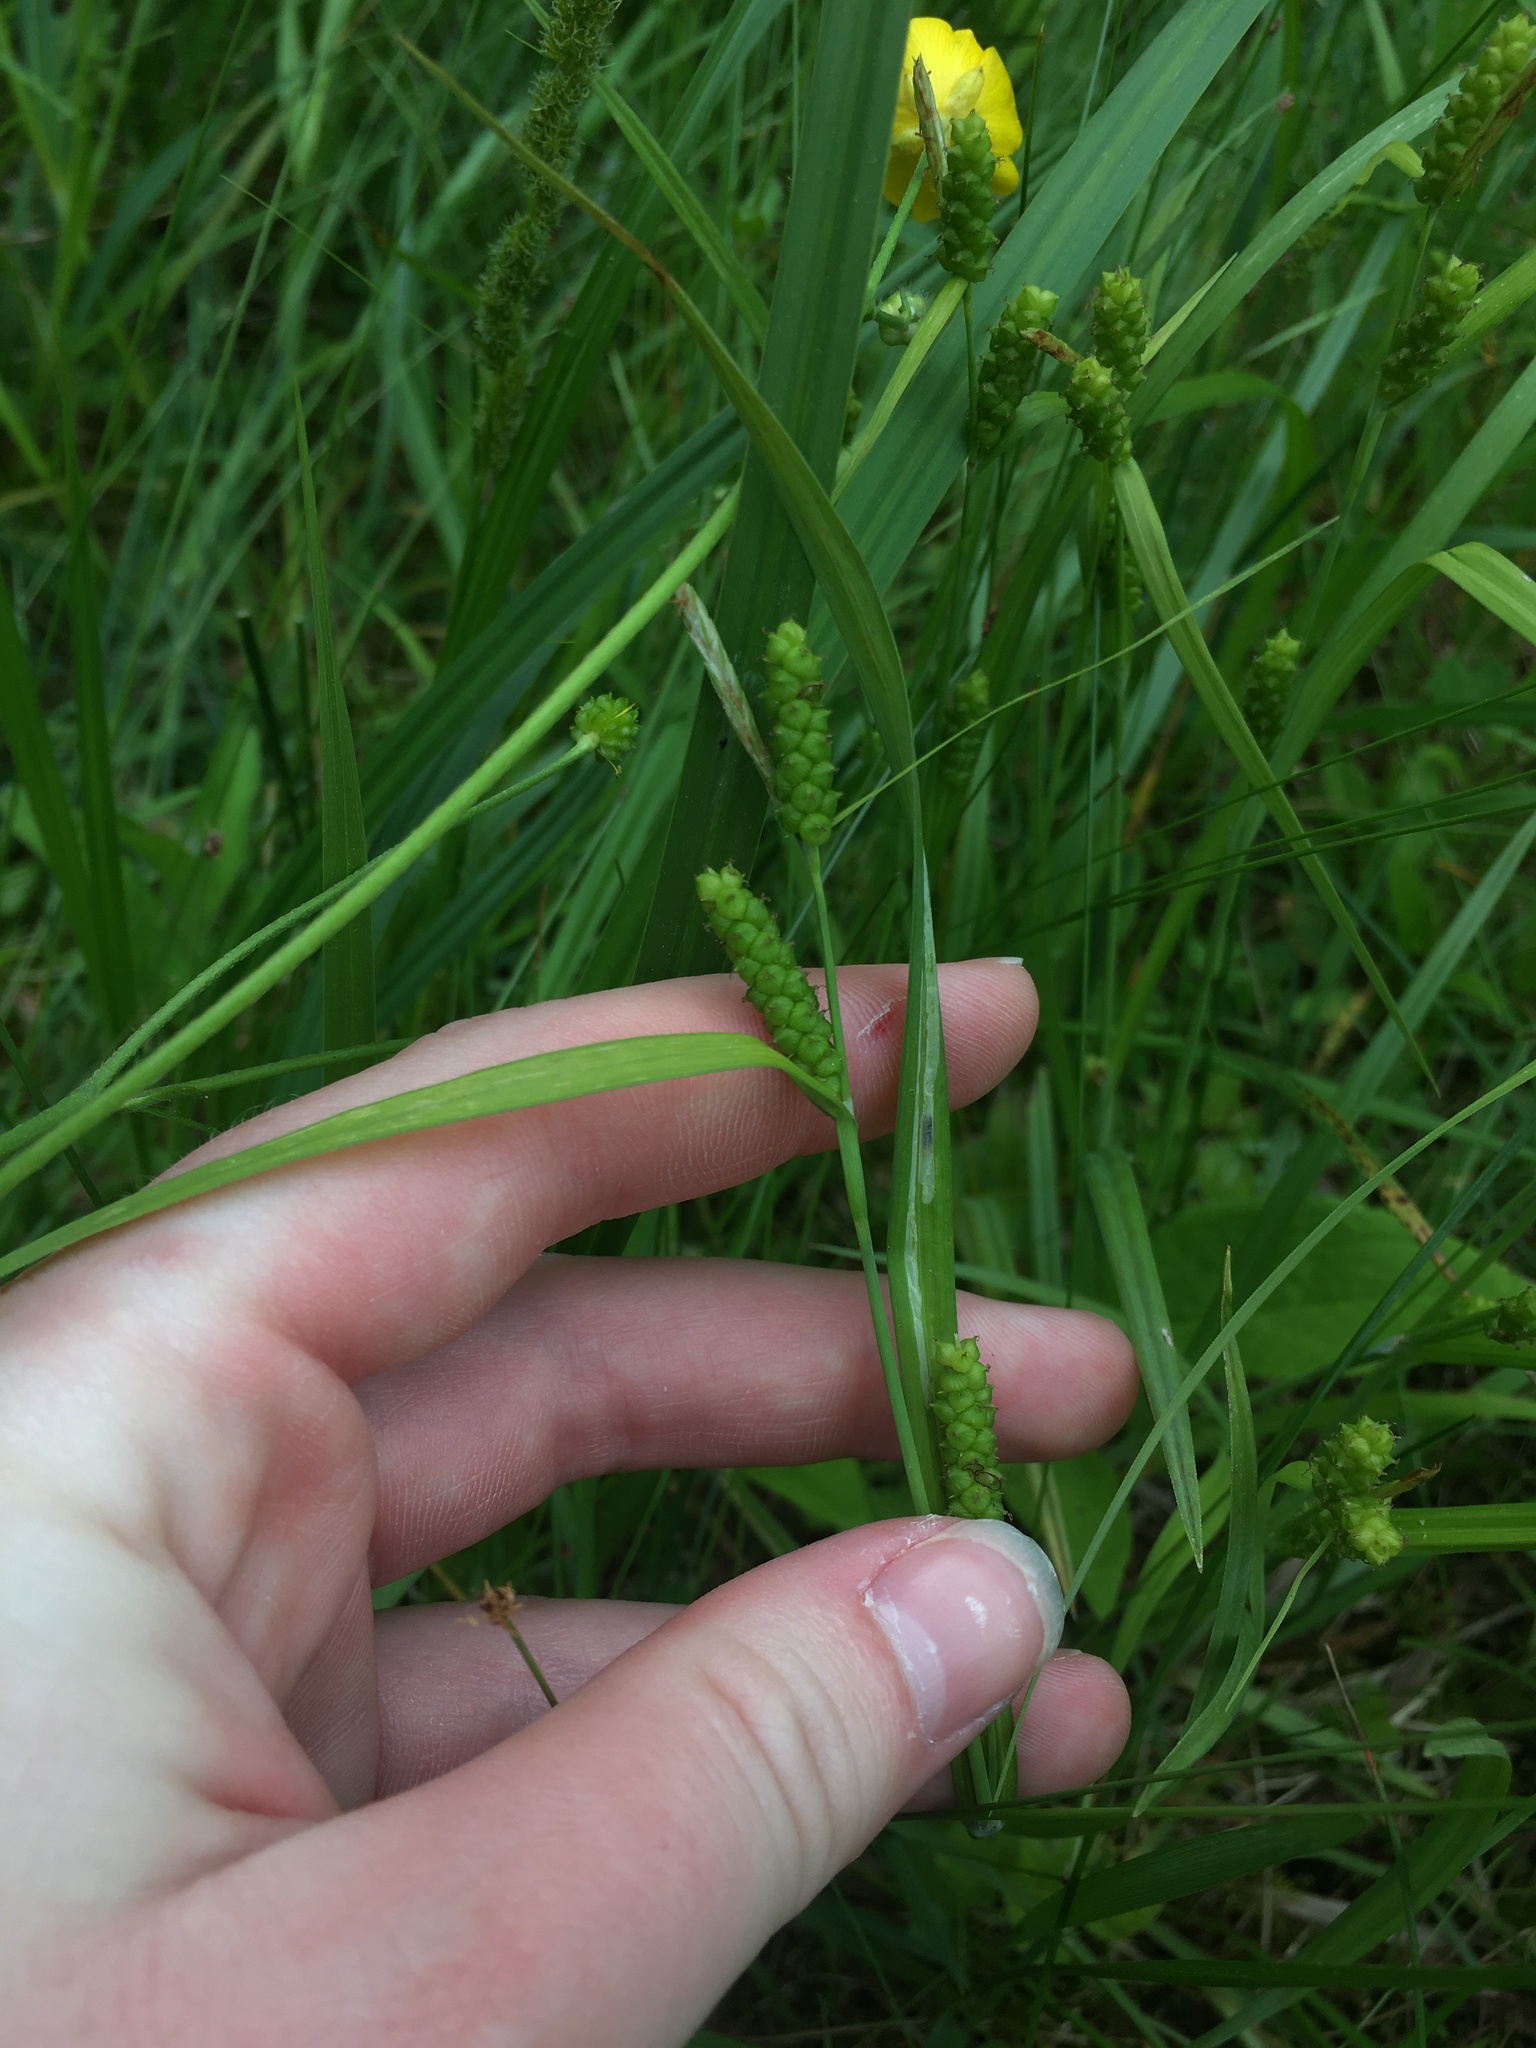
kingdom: Plantae
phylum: Tracheophyta
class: Liliopsida
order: Poales
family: Cyperaceae
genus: Carex
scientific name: Carex granularis
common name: Granular sedge
